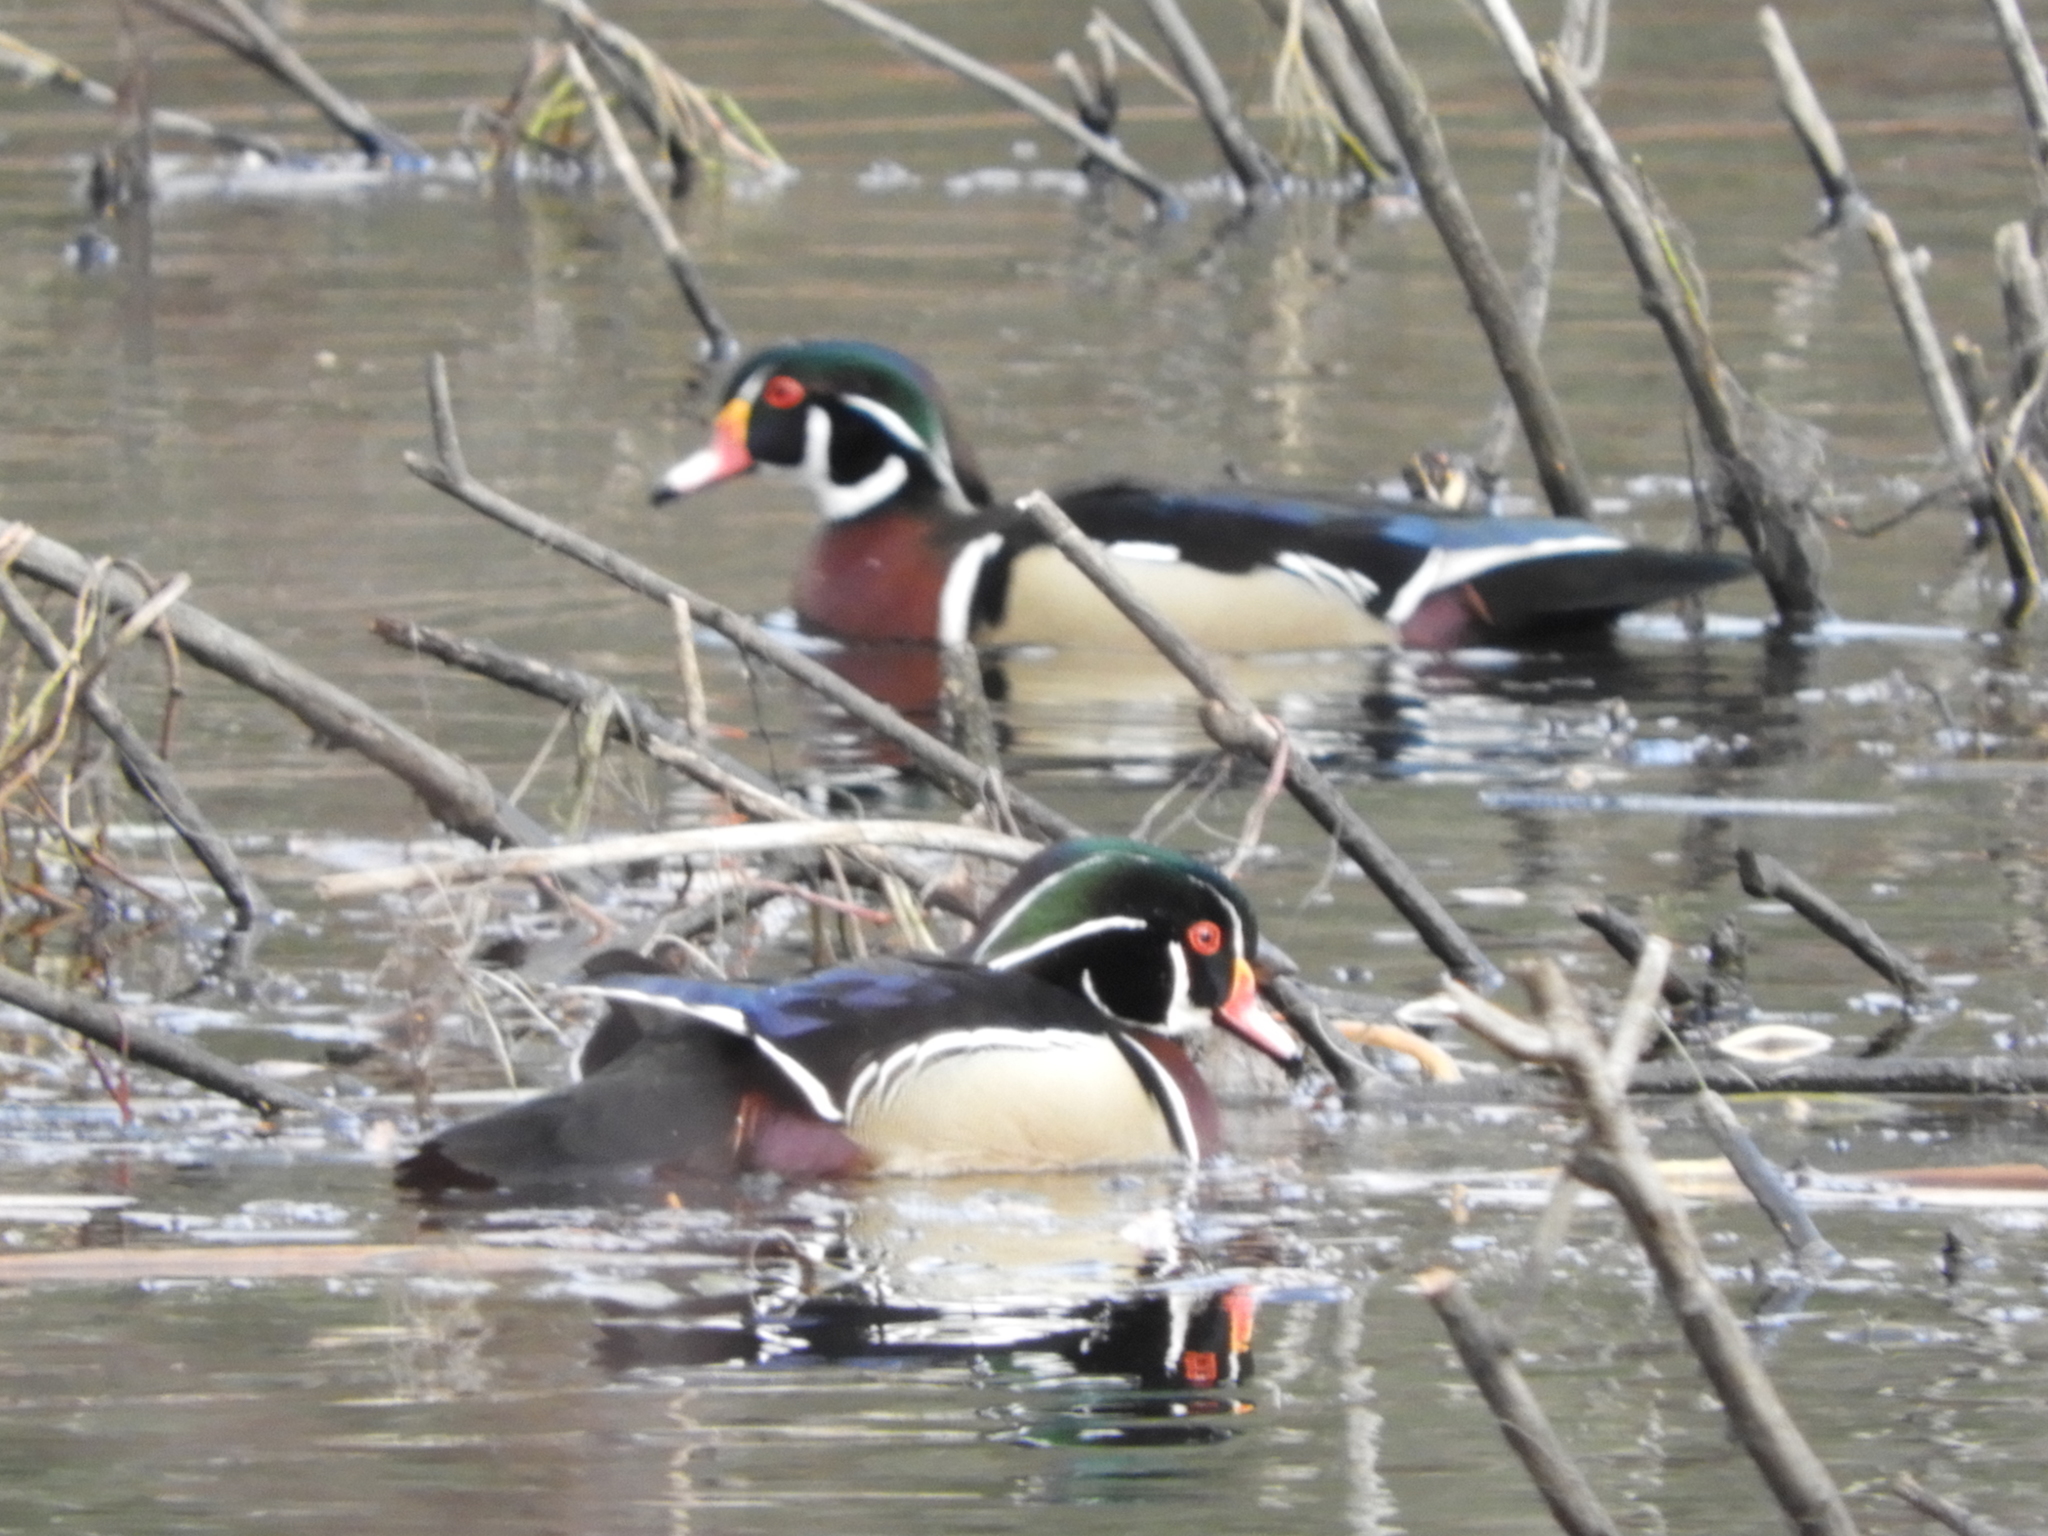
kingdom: Animalia
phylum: Chordata
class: Aves
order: Anseriformes
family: Anatidae
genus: Aix
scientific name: Aix sponsa
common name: Wood duck
